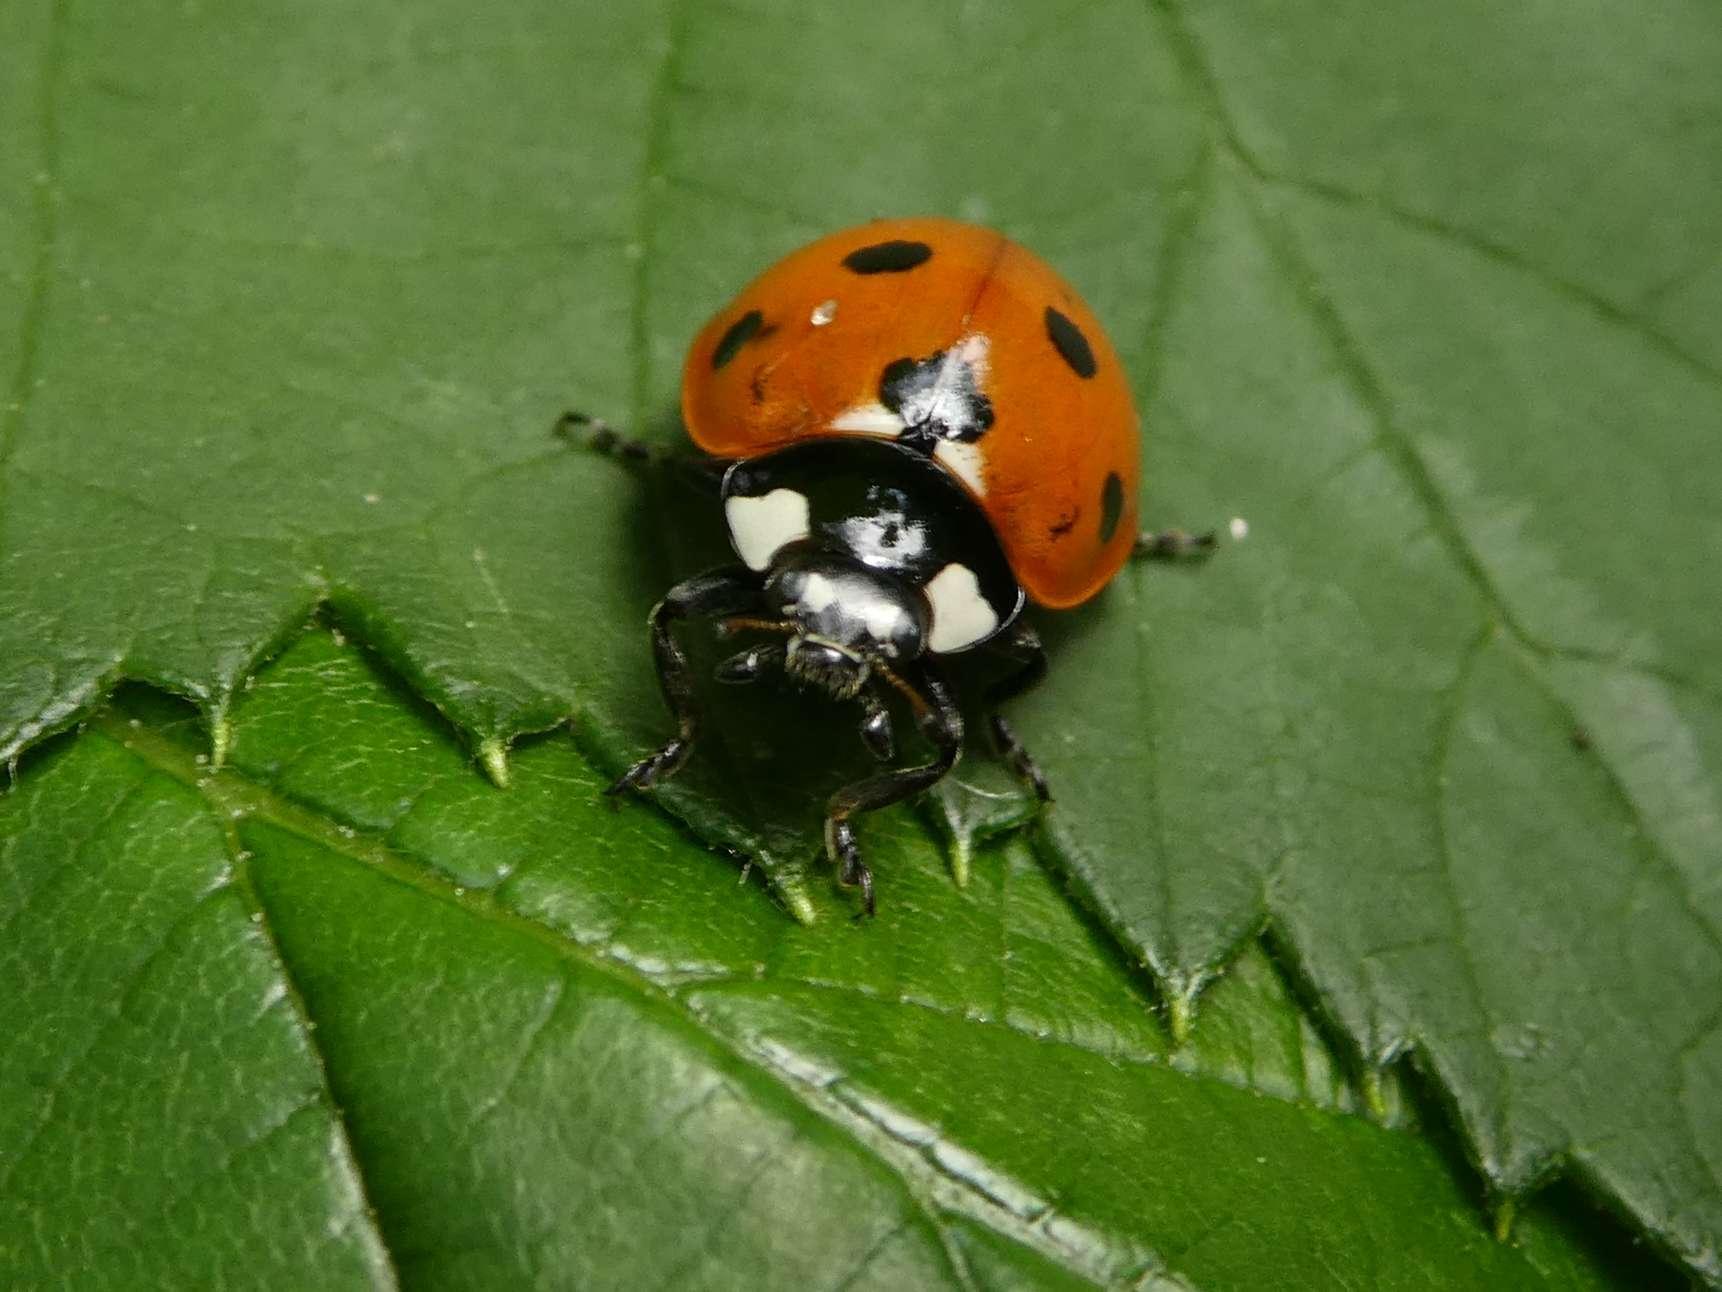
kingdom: Animalia
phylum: Arthropoda
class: Insecta
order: Coleoptera
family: Coccinellidae
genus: Coccinella
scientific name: Coccinella septempunctata
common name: Sevenspotted lady beetle
